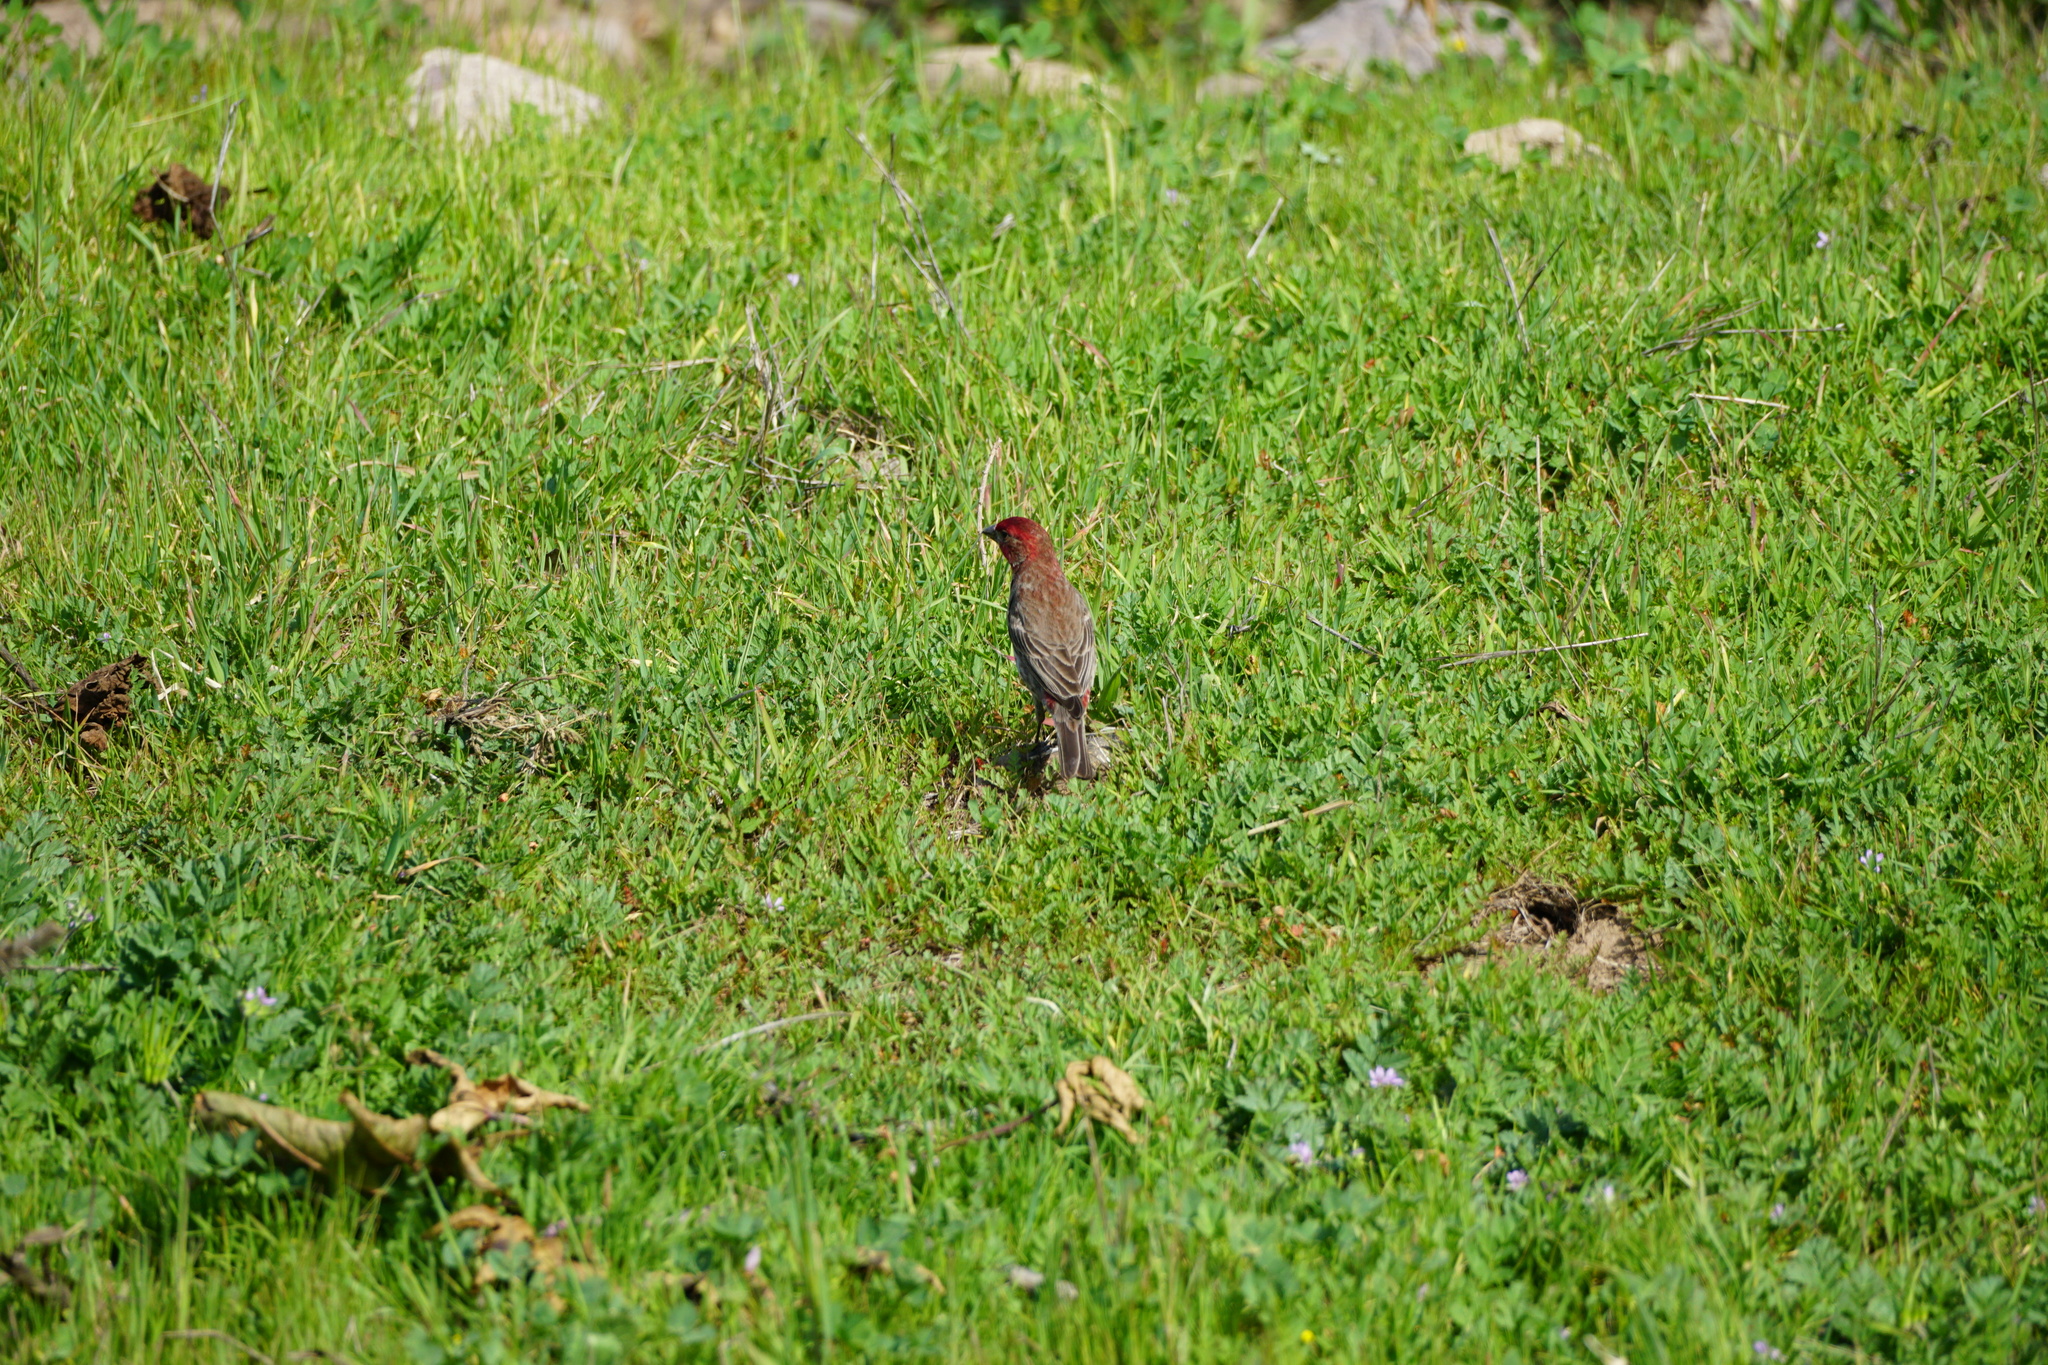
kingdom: Animalia
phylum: Chordata
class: Aves
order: Passeriformes
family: Fringillidae
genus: Haemorhous
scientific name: Haemorhous mexicanus
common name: House finch
